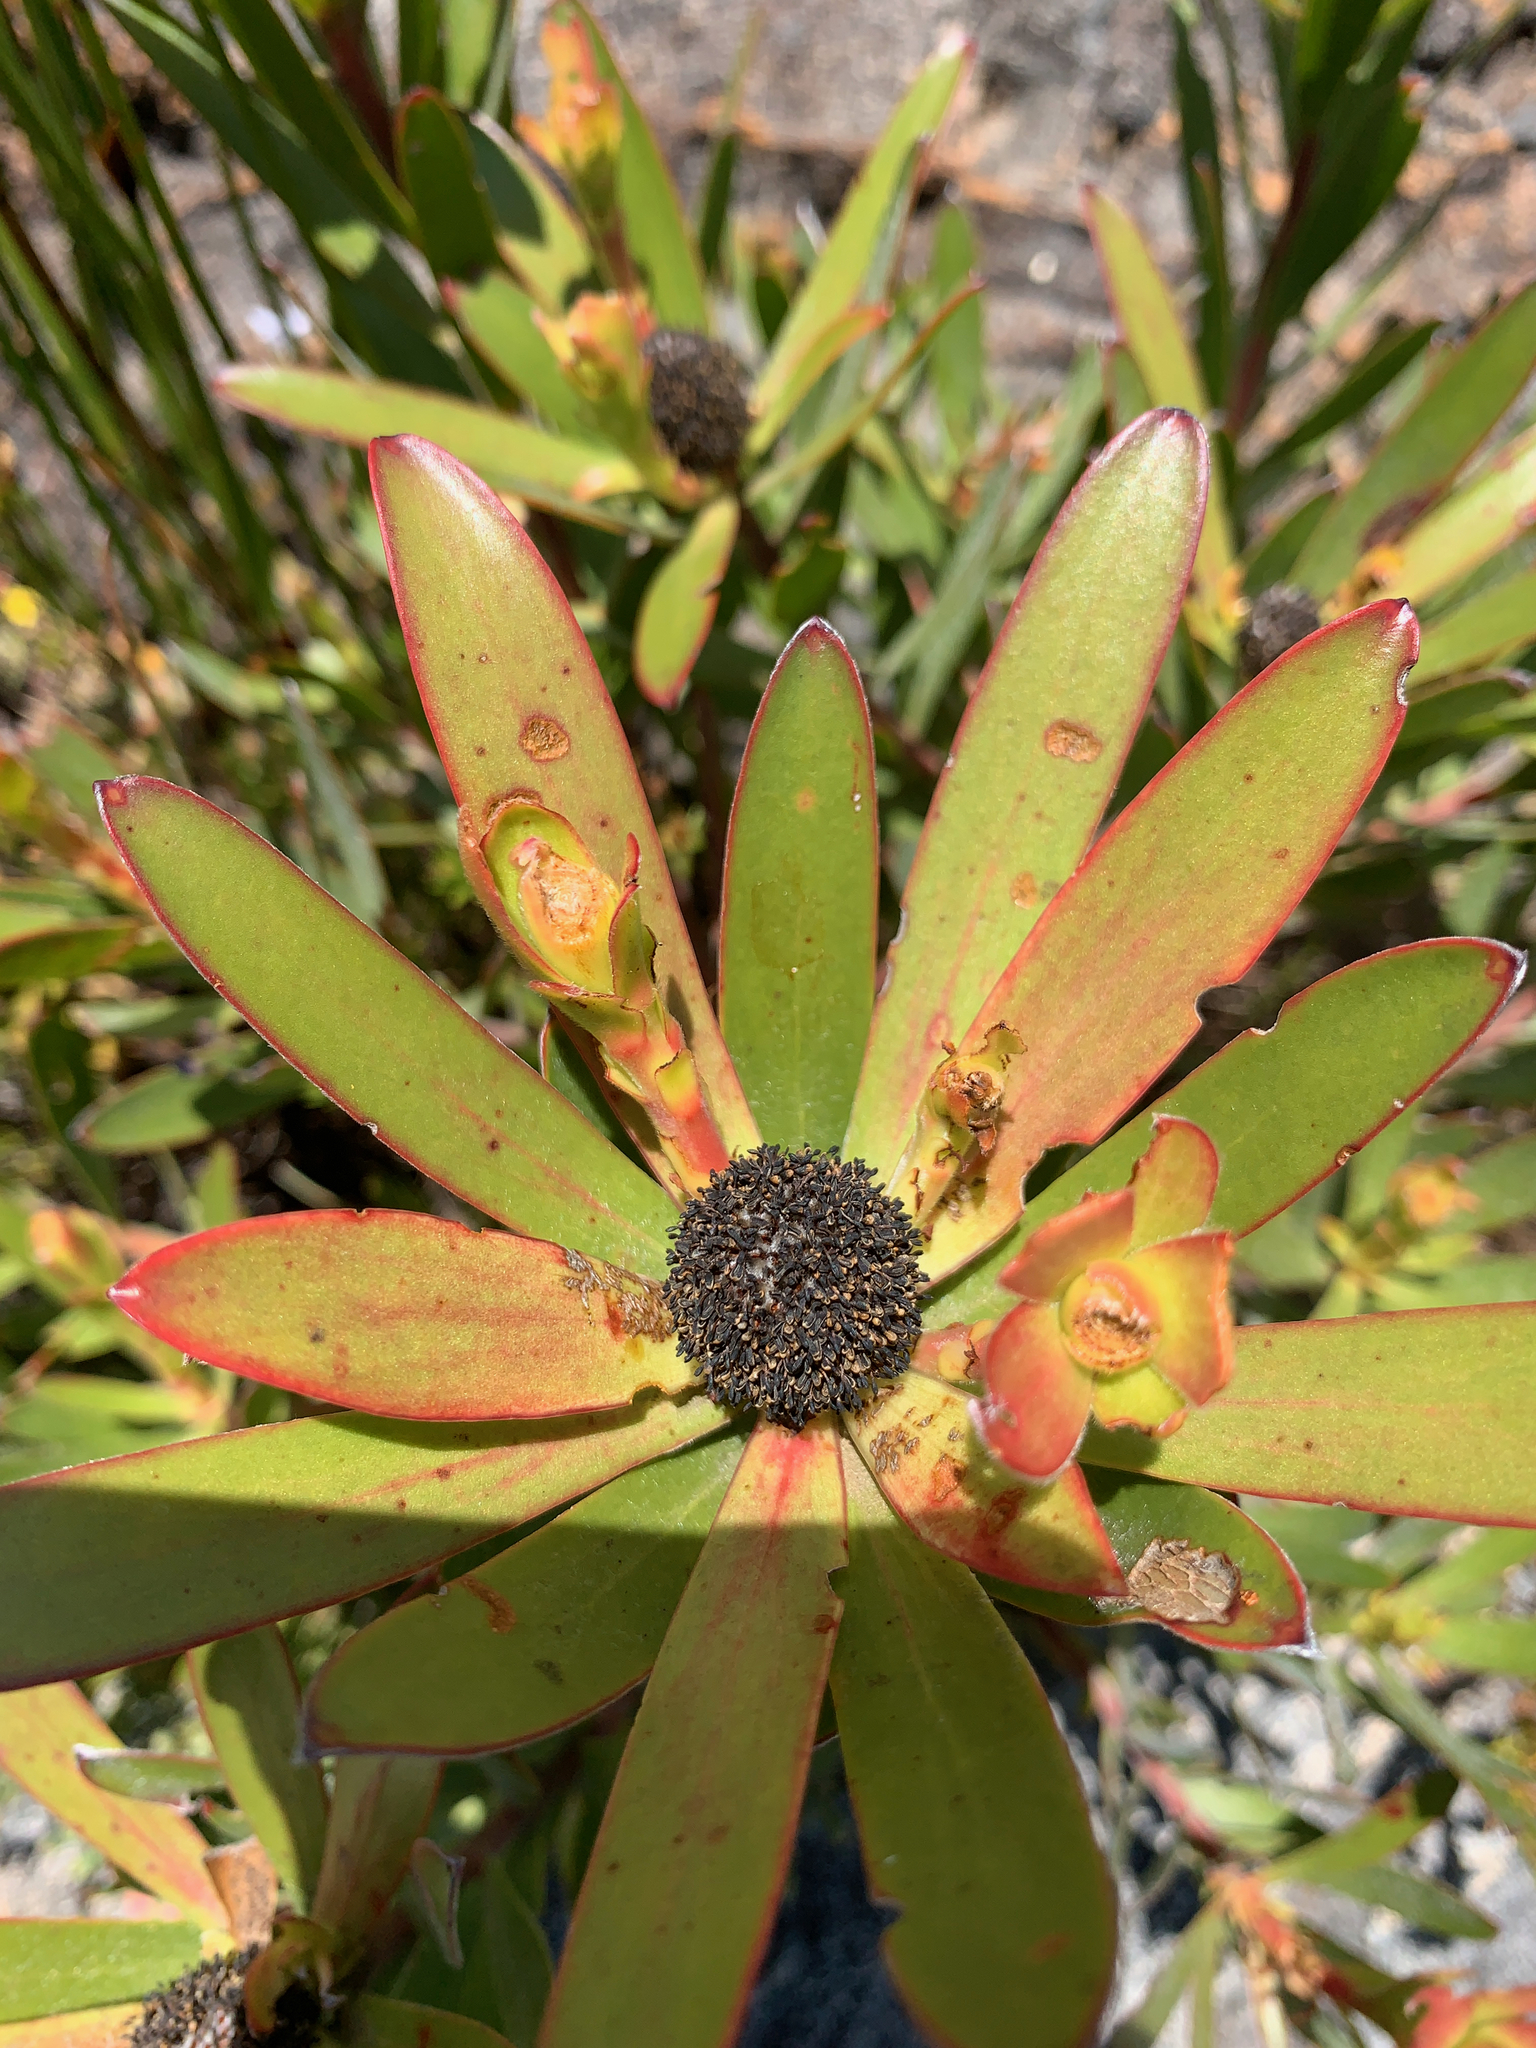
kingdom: Plantae
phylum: Tracheophyta
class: Magnoliopsida
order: Proteales
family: Proteaceae
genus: Leucadendron
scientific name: Leucadendron gandogeri
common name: Broad-leaf conebush
